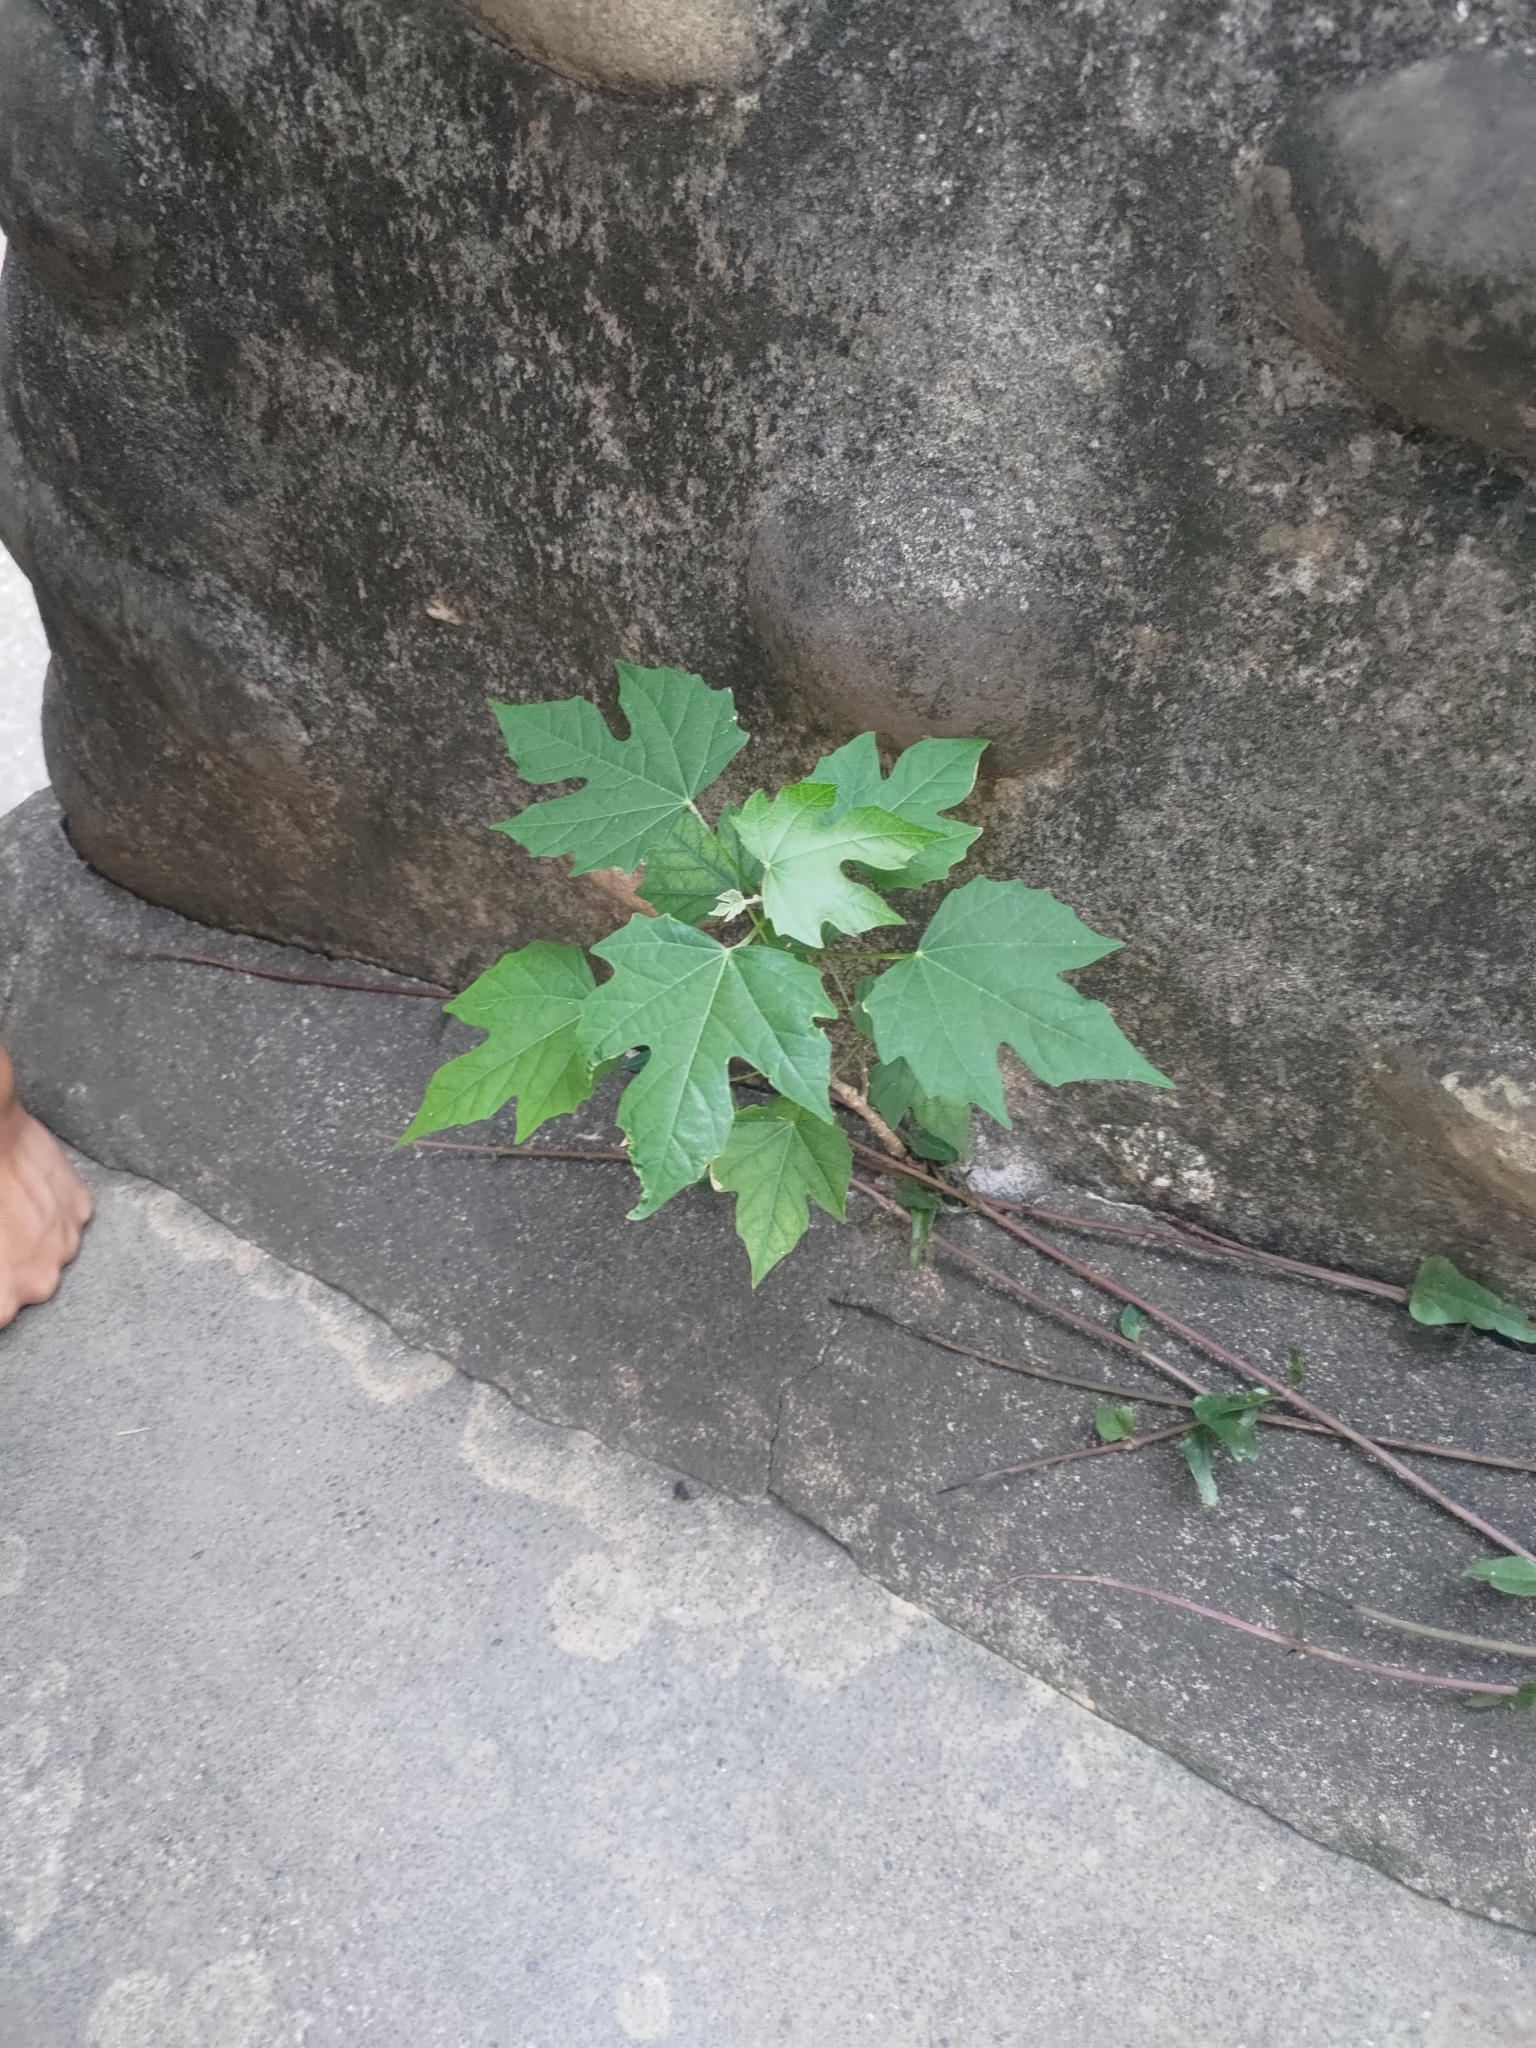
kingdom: Plantae
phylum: Tracheophyta
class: Magnoliopsida
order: Malpighiales
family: Euphorbiaceae
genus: Melanolepis
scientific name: Melanolepis multiglandulosa
